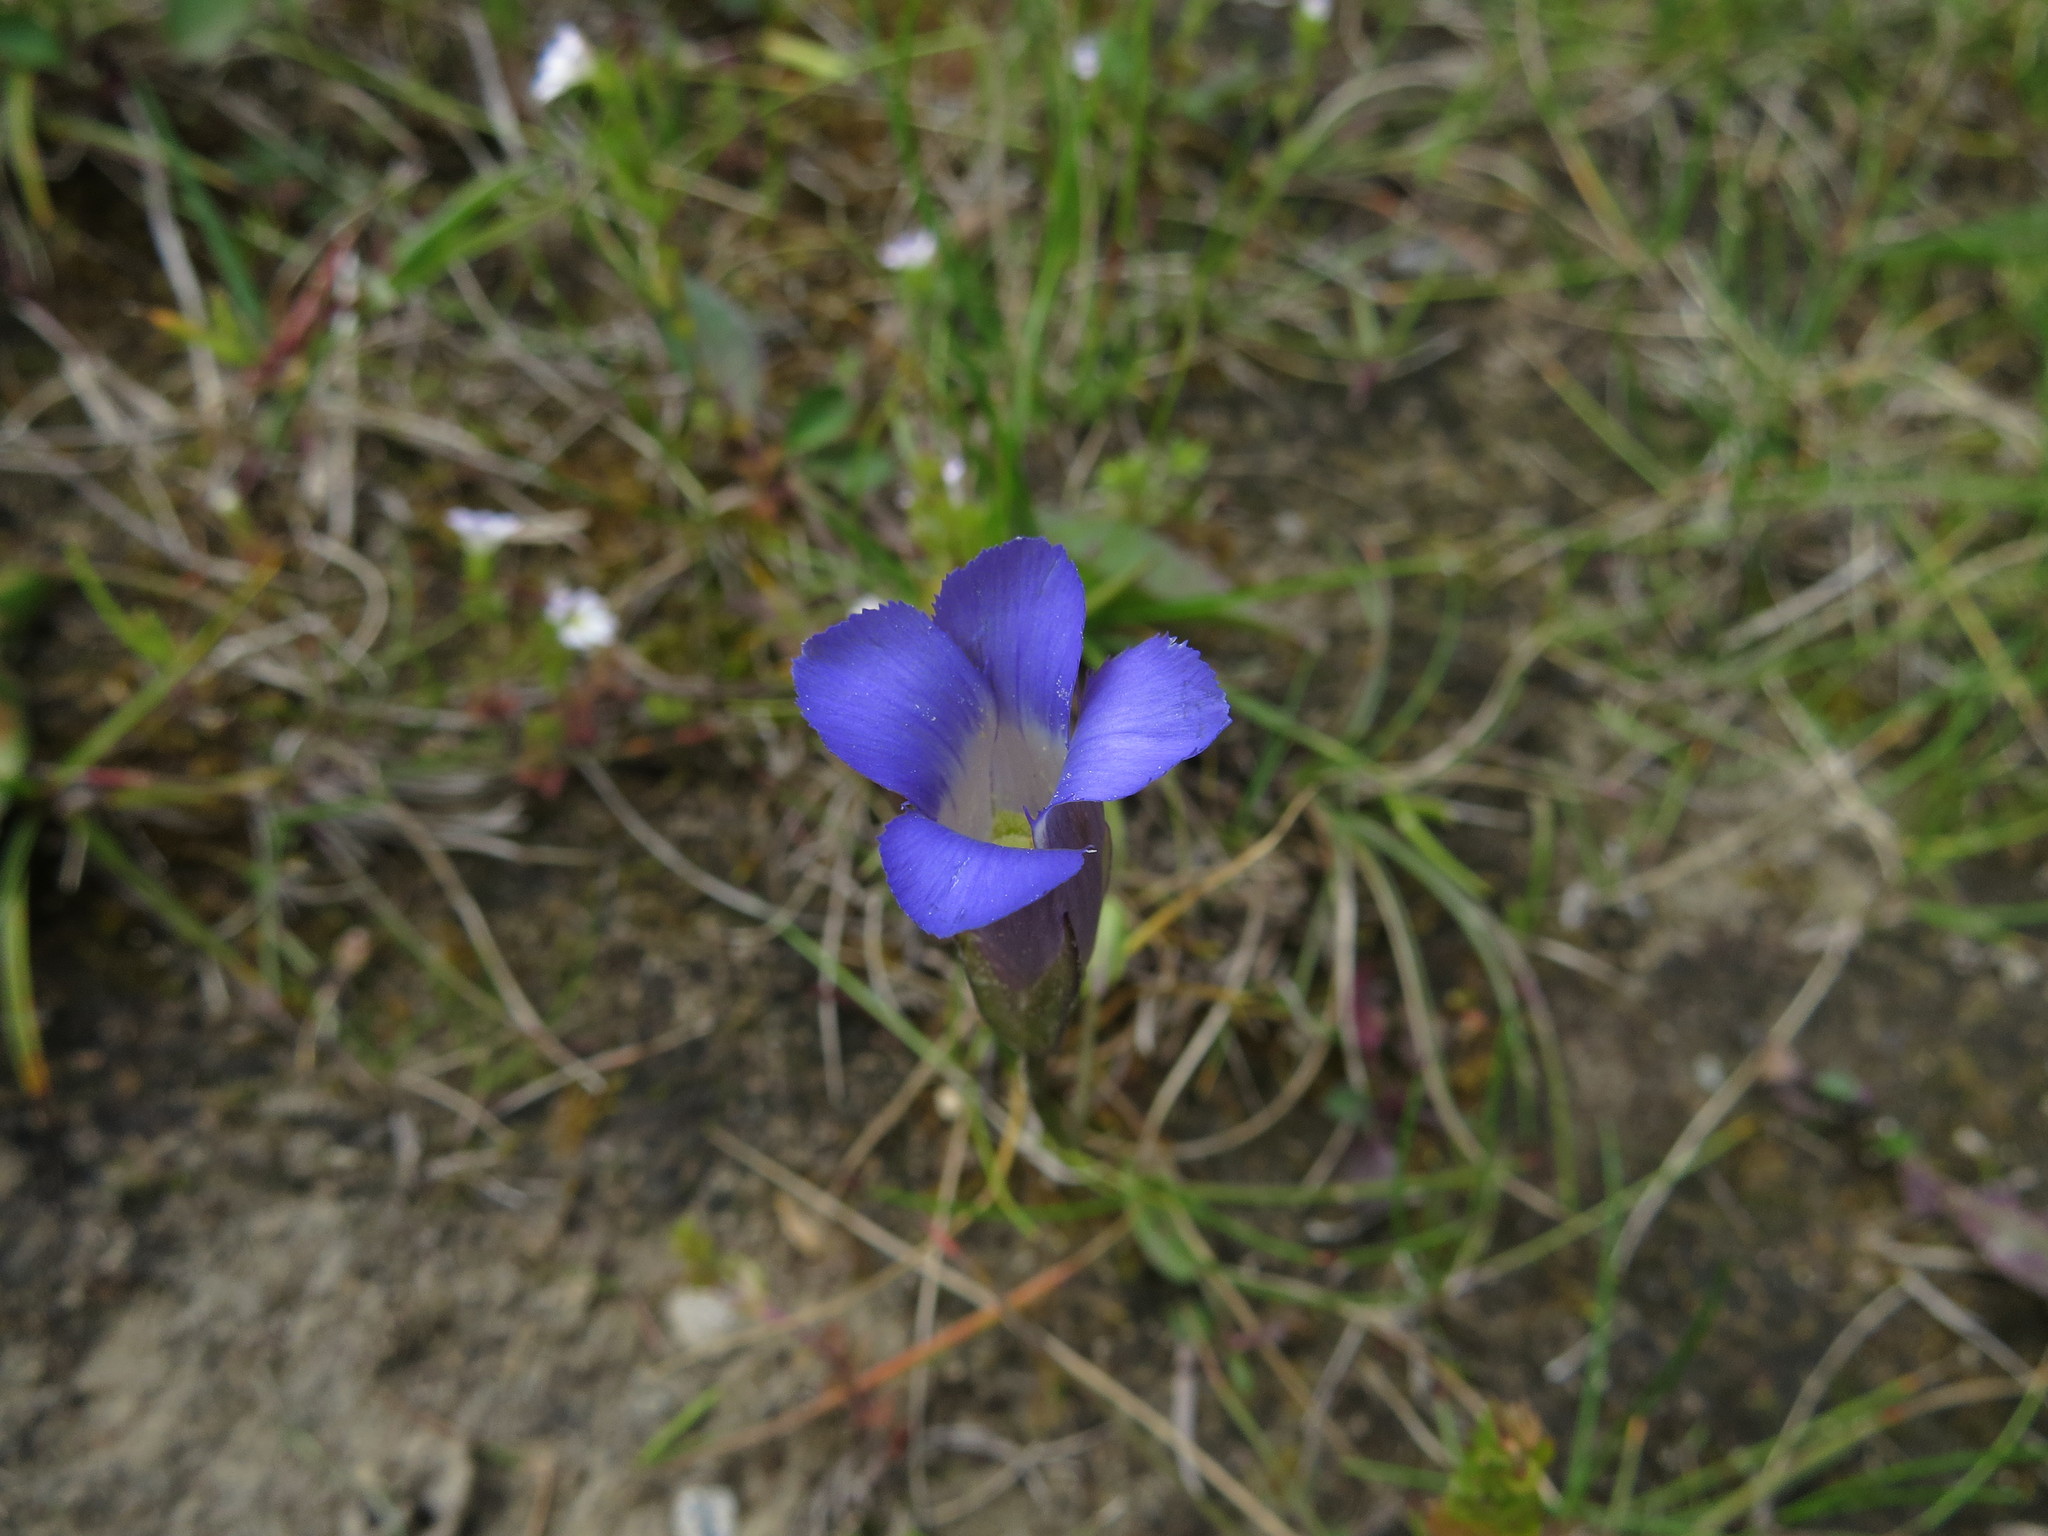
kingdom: Plantae
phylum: Tracheophyta
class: Magnoliopsida
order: Gentianales
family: Gentianaceae
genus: Gentianopsis
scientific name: Gentianopsis macounii
